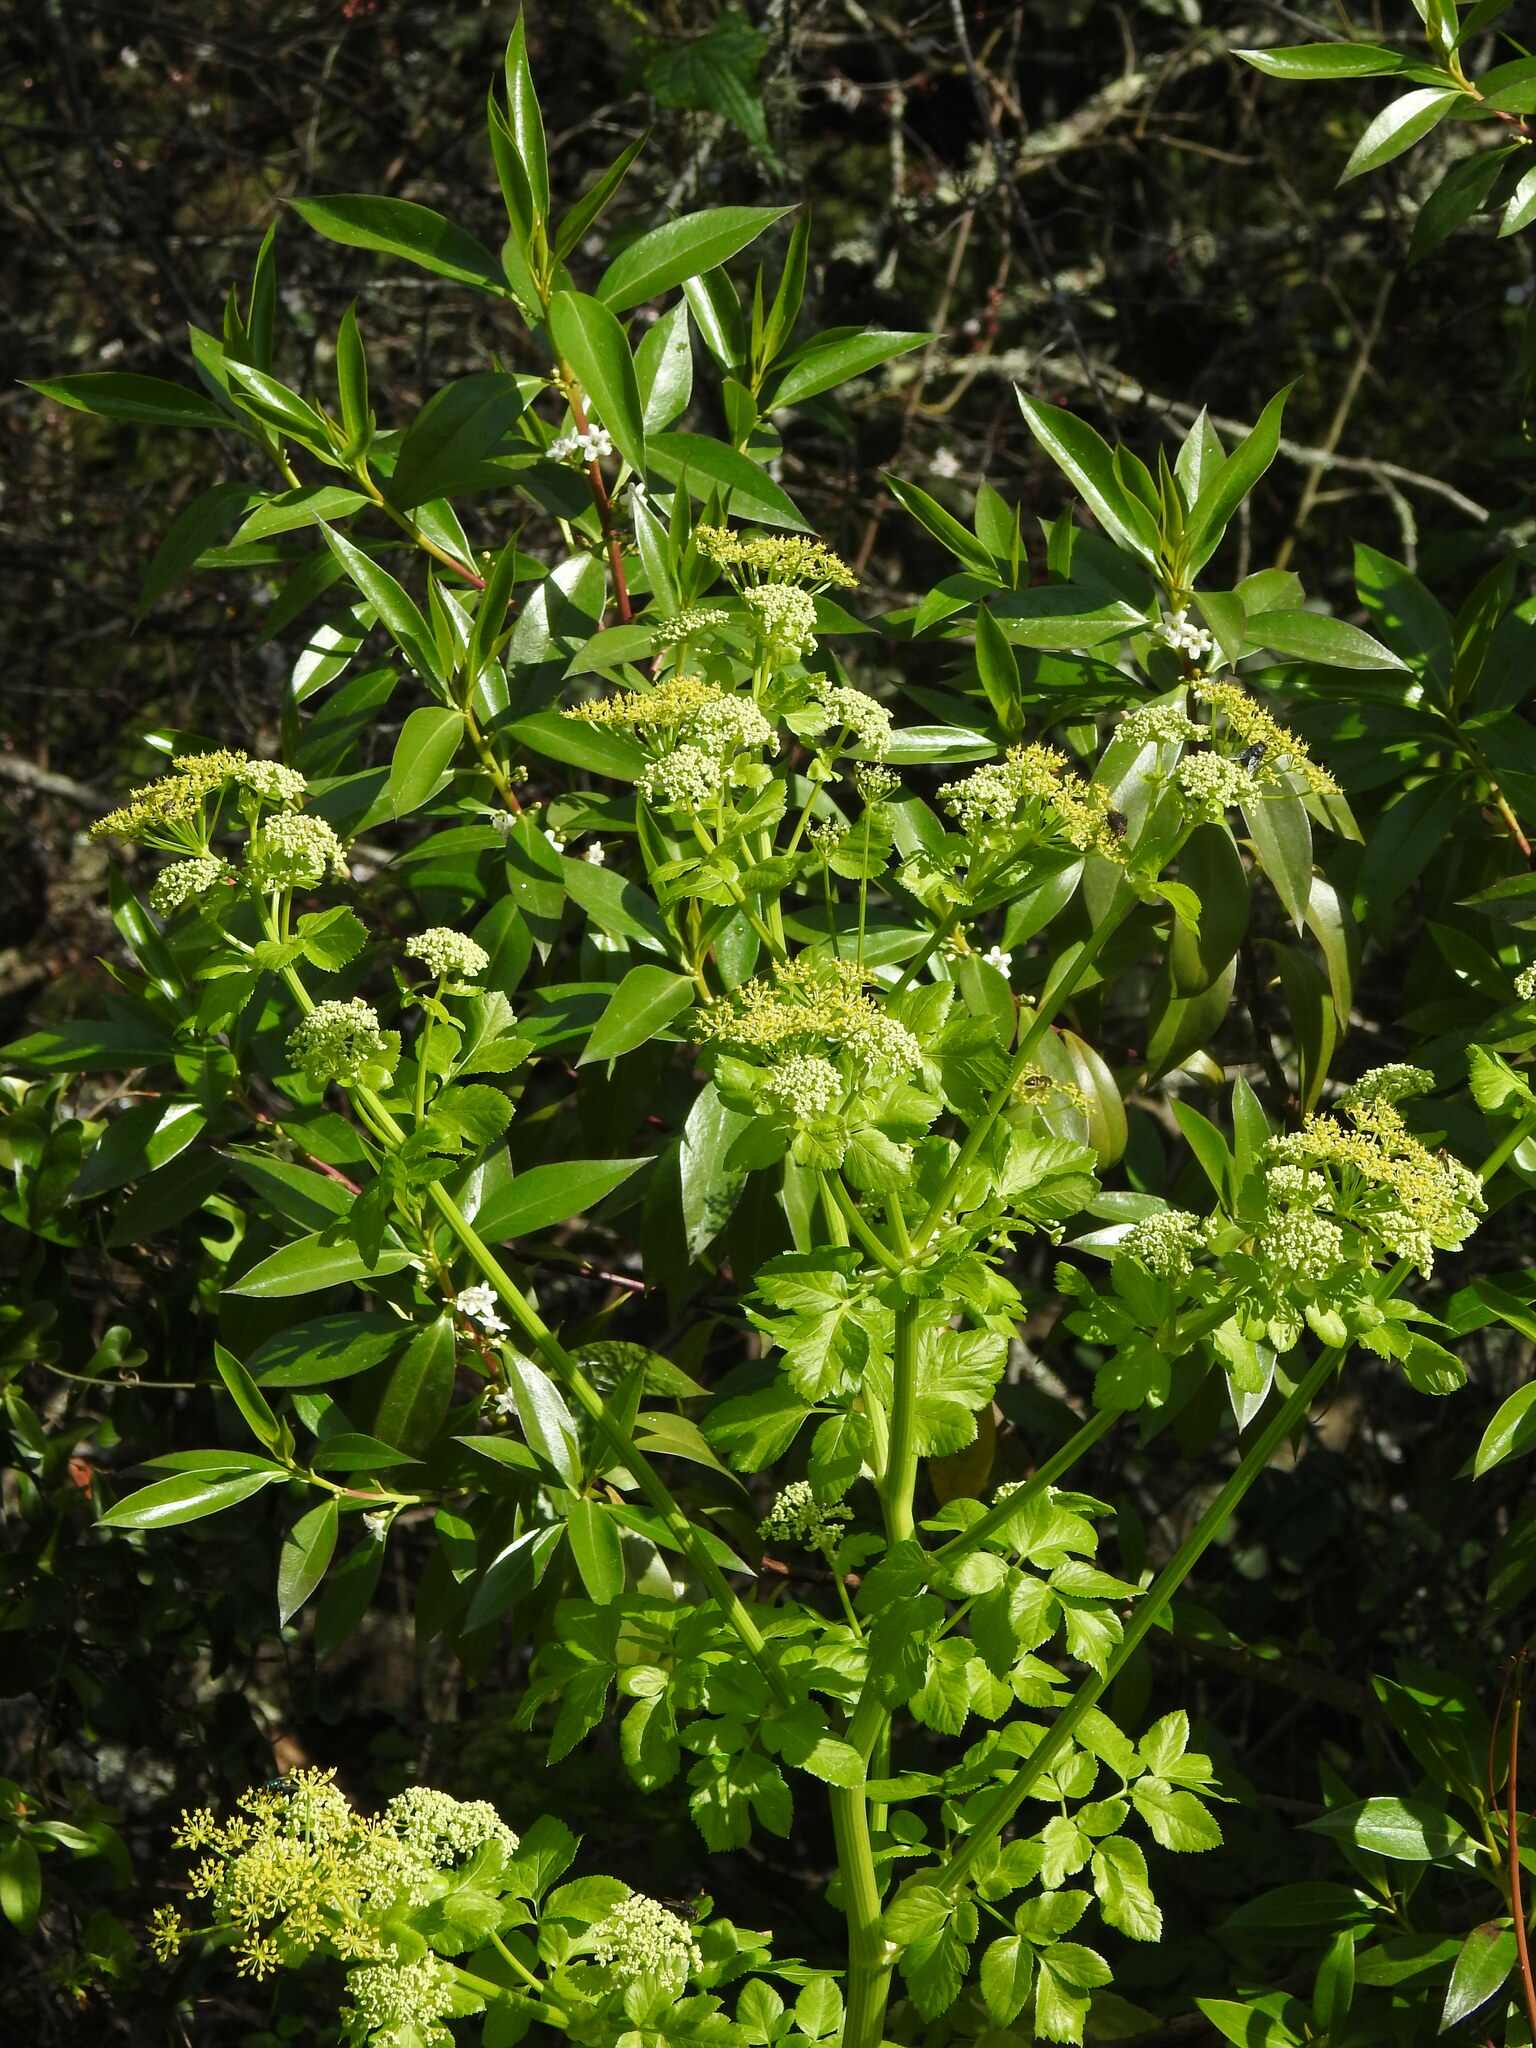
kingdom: Plantae
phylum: Tracheophyta
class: Magnoliopsida
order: Apiales
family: Apiaceae
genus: Smyrnium
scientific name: Smyrnium olusatrum
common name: Alexanders
